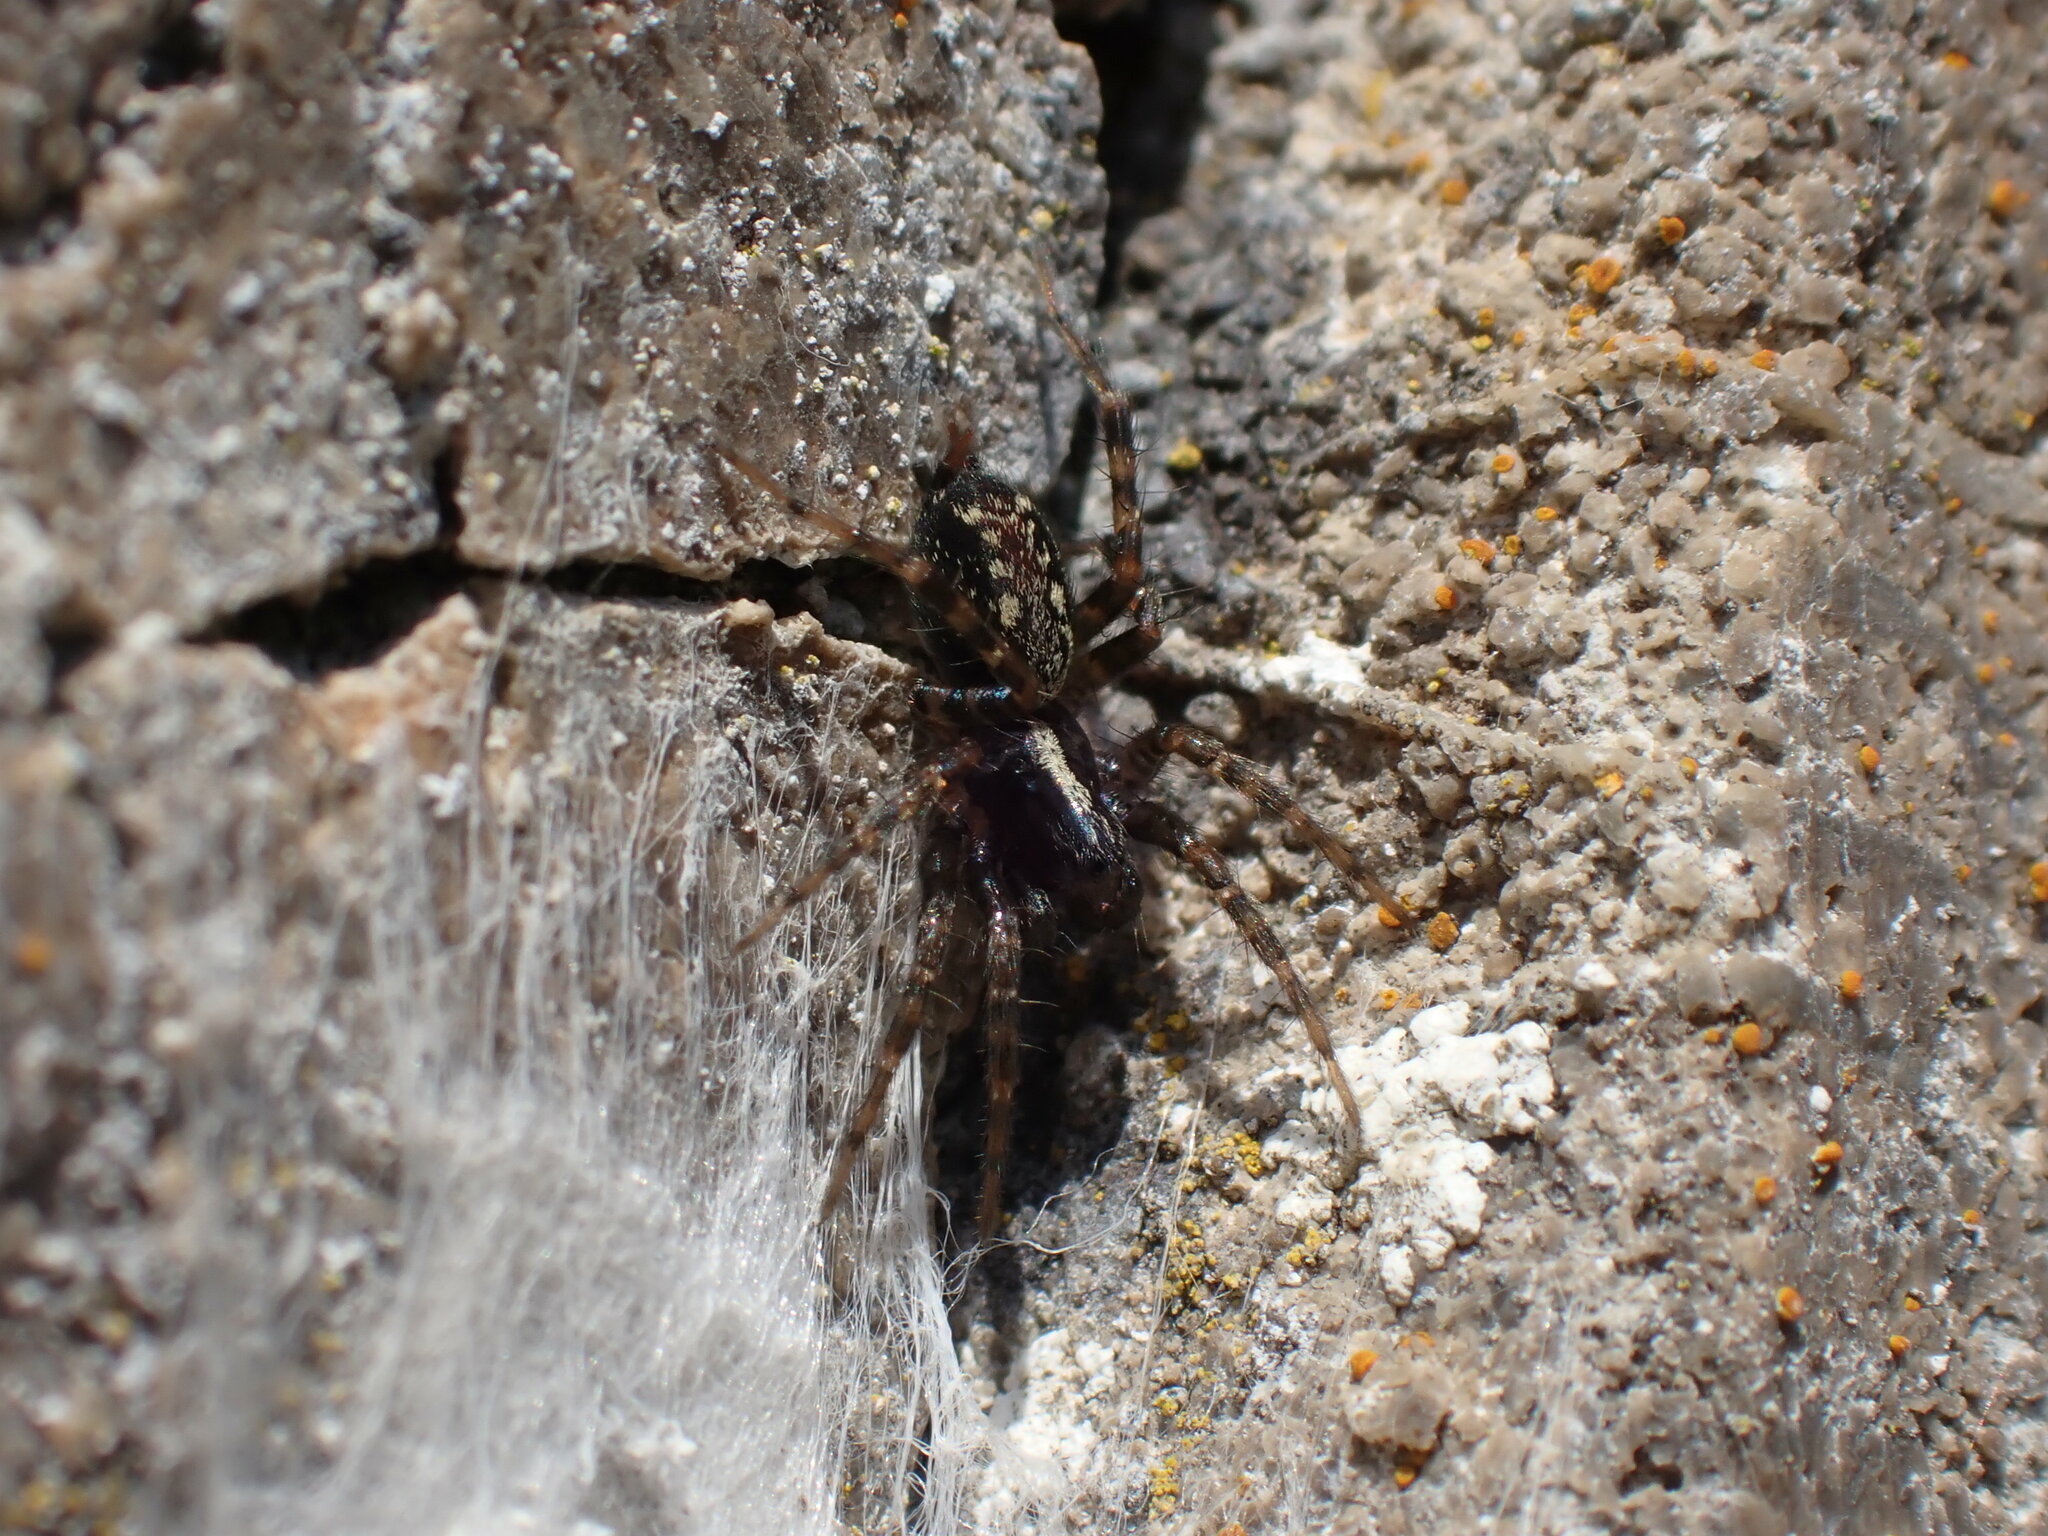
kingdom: Animalia
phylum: Arthropoda
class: Arachnida
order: Araneae
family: Agelenidae
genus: Textrix
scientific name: Textrix denticulata
